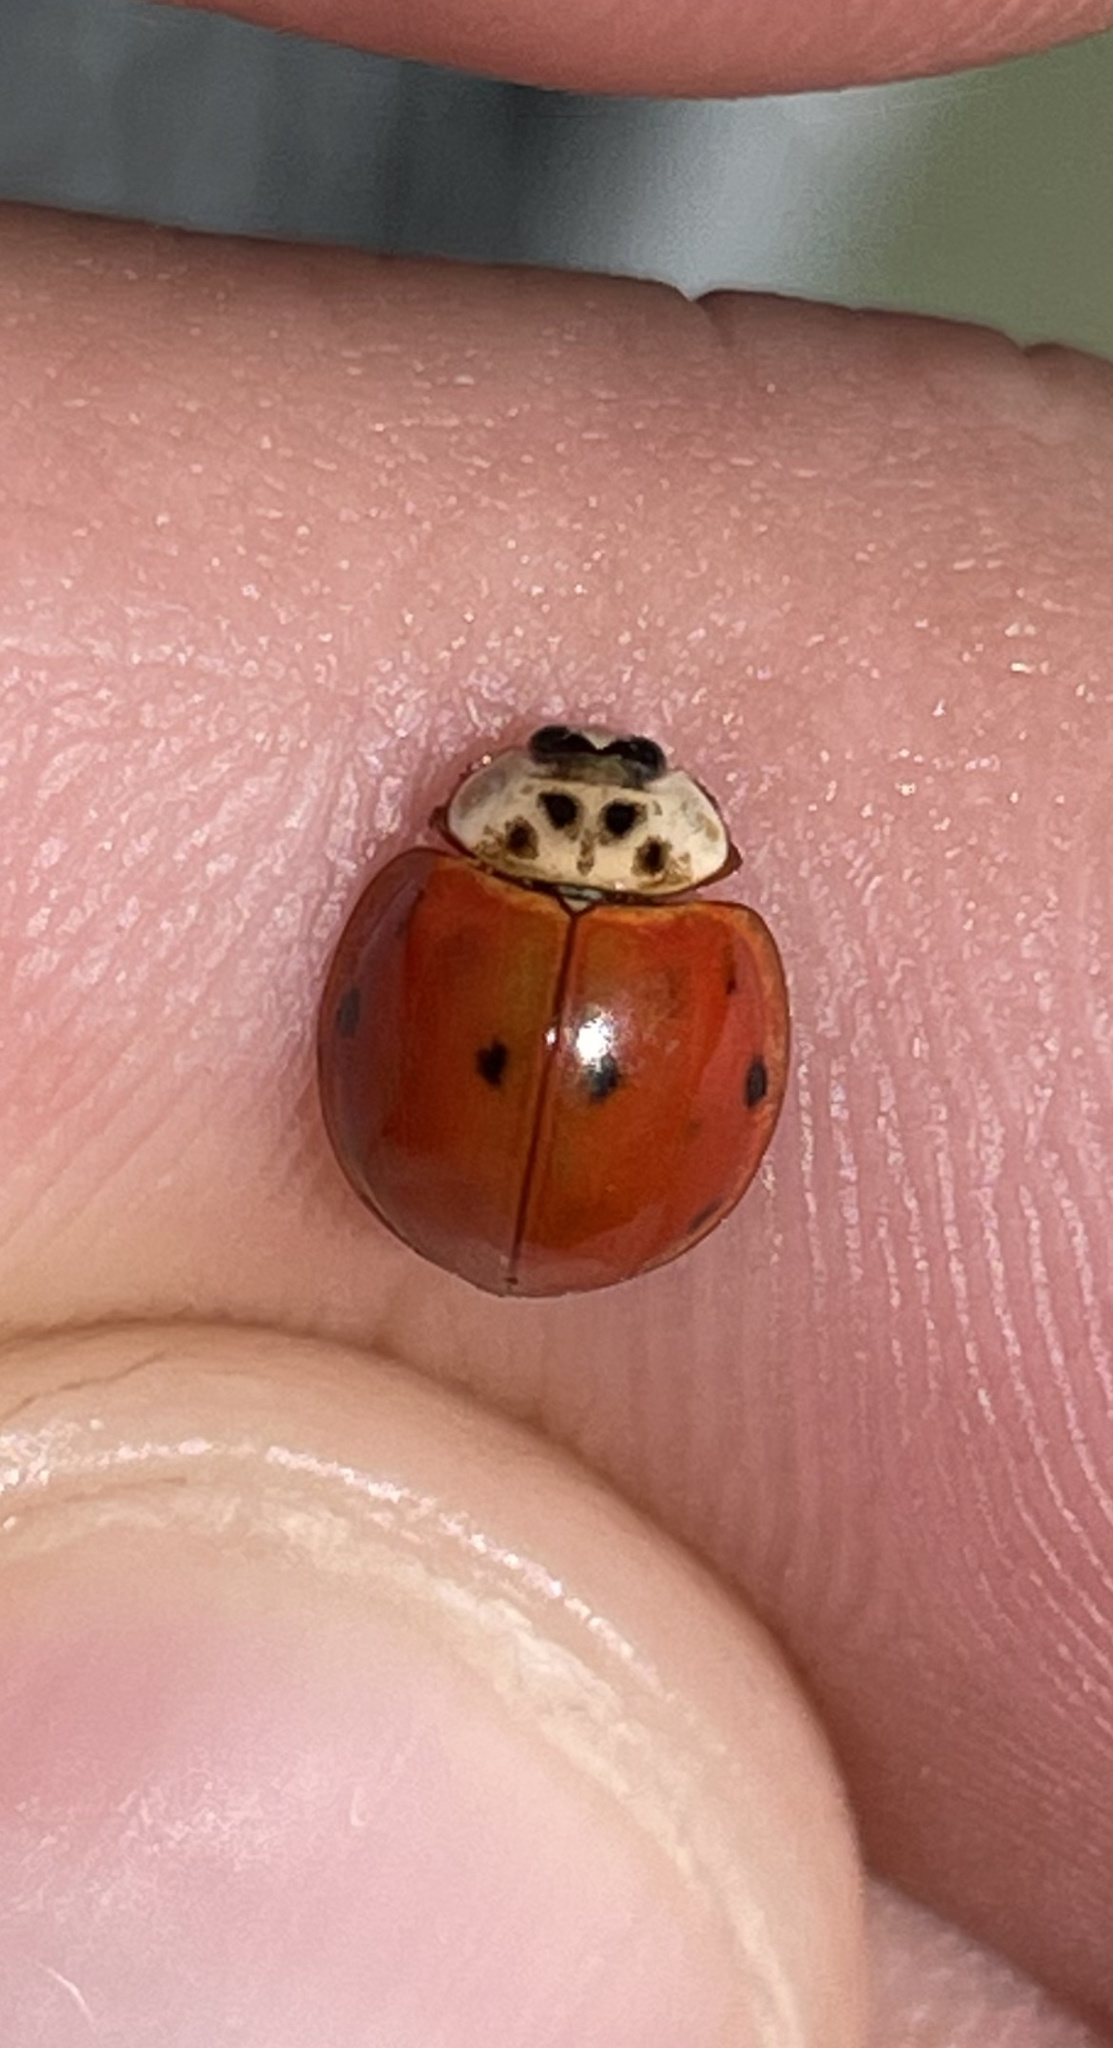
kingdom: Animalia
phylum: Arthropoda
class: Insecta
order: Coleoptera
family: Coccinellidae
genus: Harmonia
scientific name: Harmonia axyridis
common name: Harlequin ladybird
